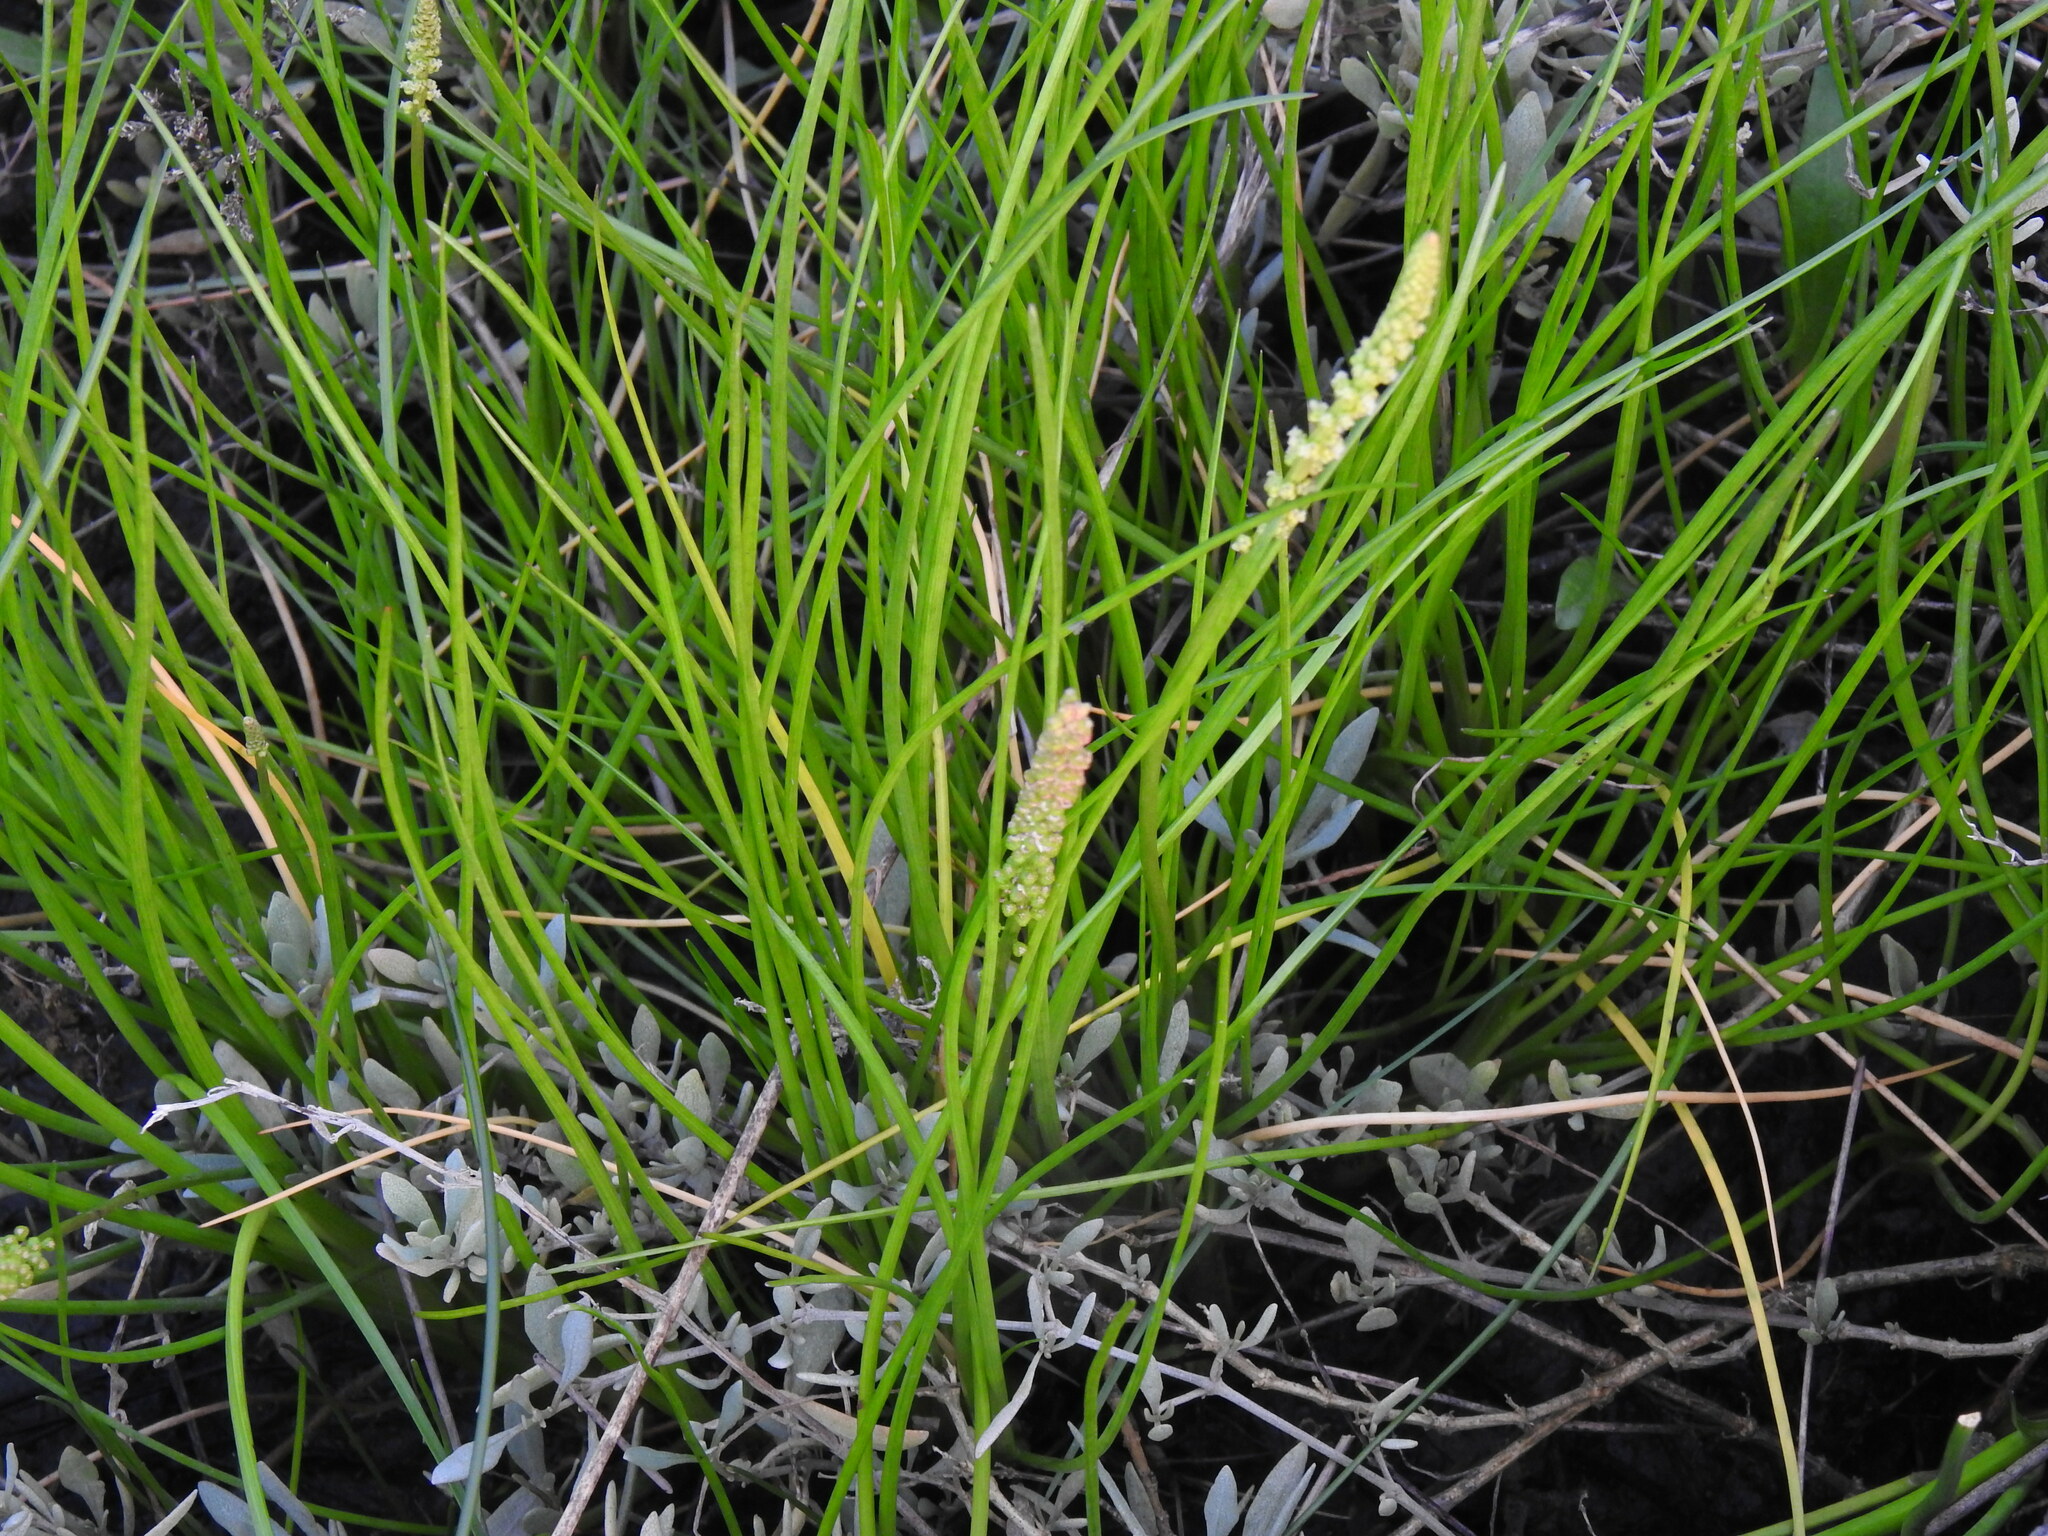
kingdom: Plantae
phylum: Tracheophyta
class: Liliopsida
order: Alismatales
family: Juncaginaceae
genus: Triglochin
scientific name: Triglochin maritima
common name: Sea arrowgrass
